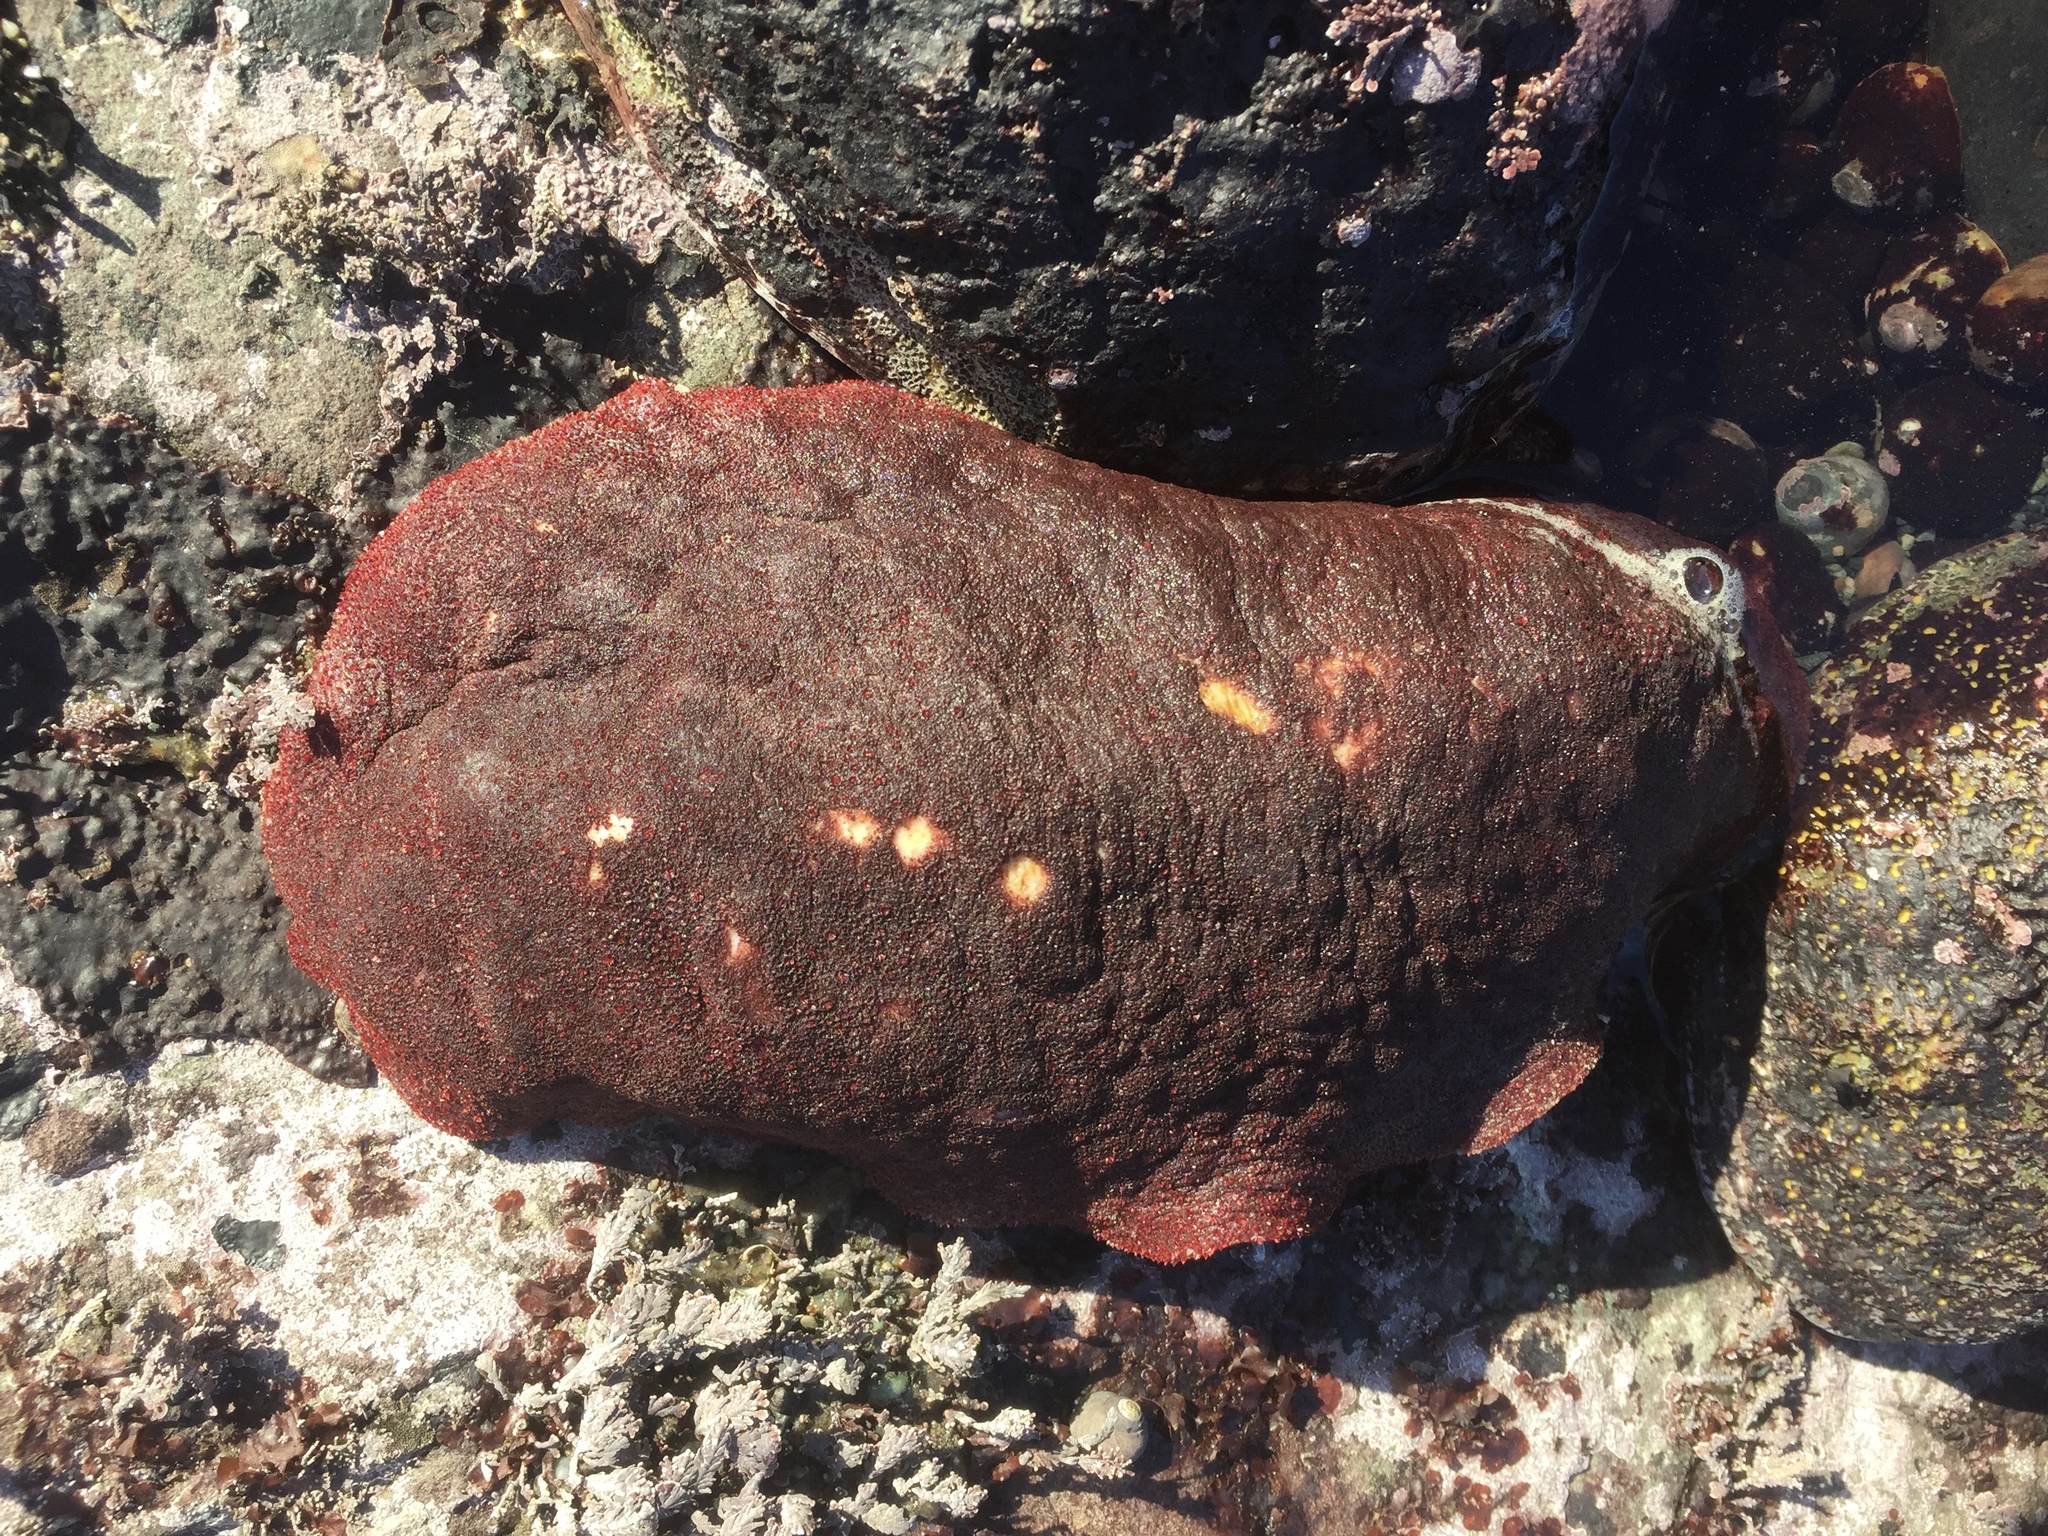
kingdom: Animalia
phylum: Mollusca
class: Polyplacophora
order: Chitonida
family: Acanthochitonidae
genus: Cryptochiton
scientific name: Cryptochiton stelleri
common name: Giant pacific chiton
